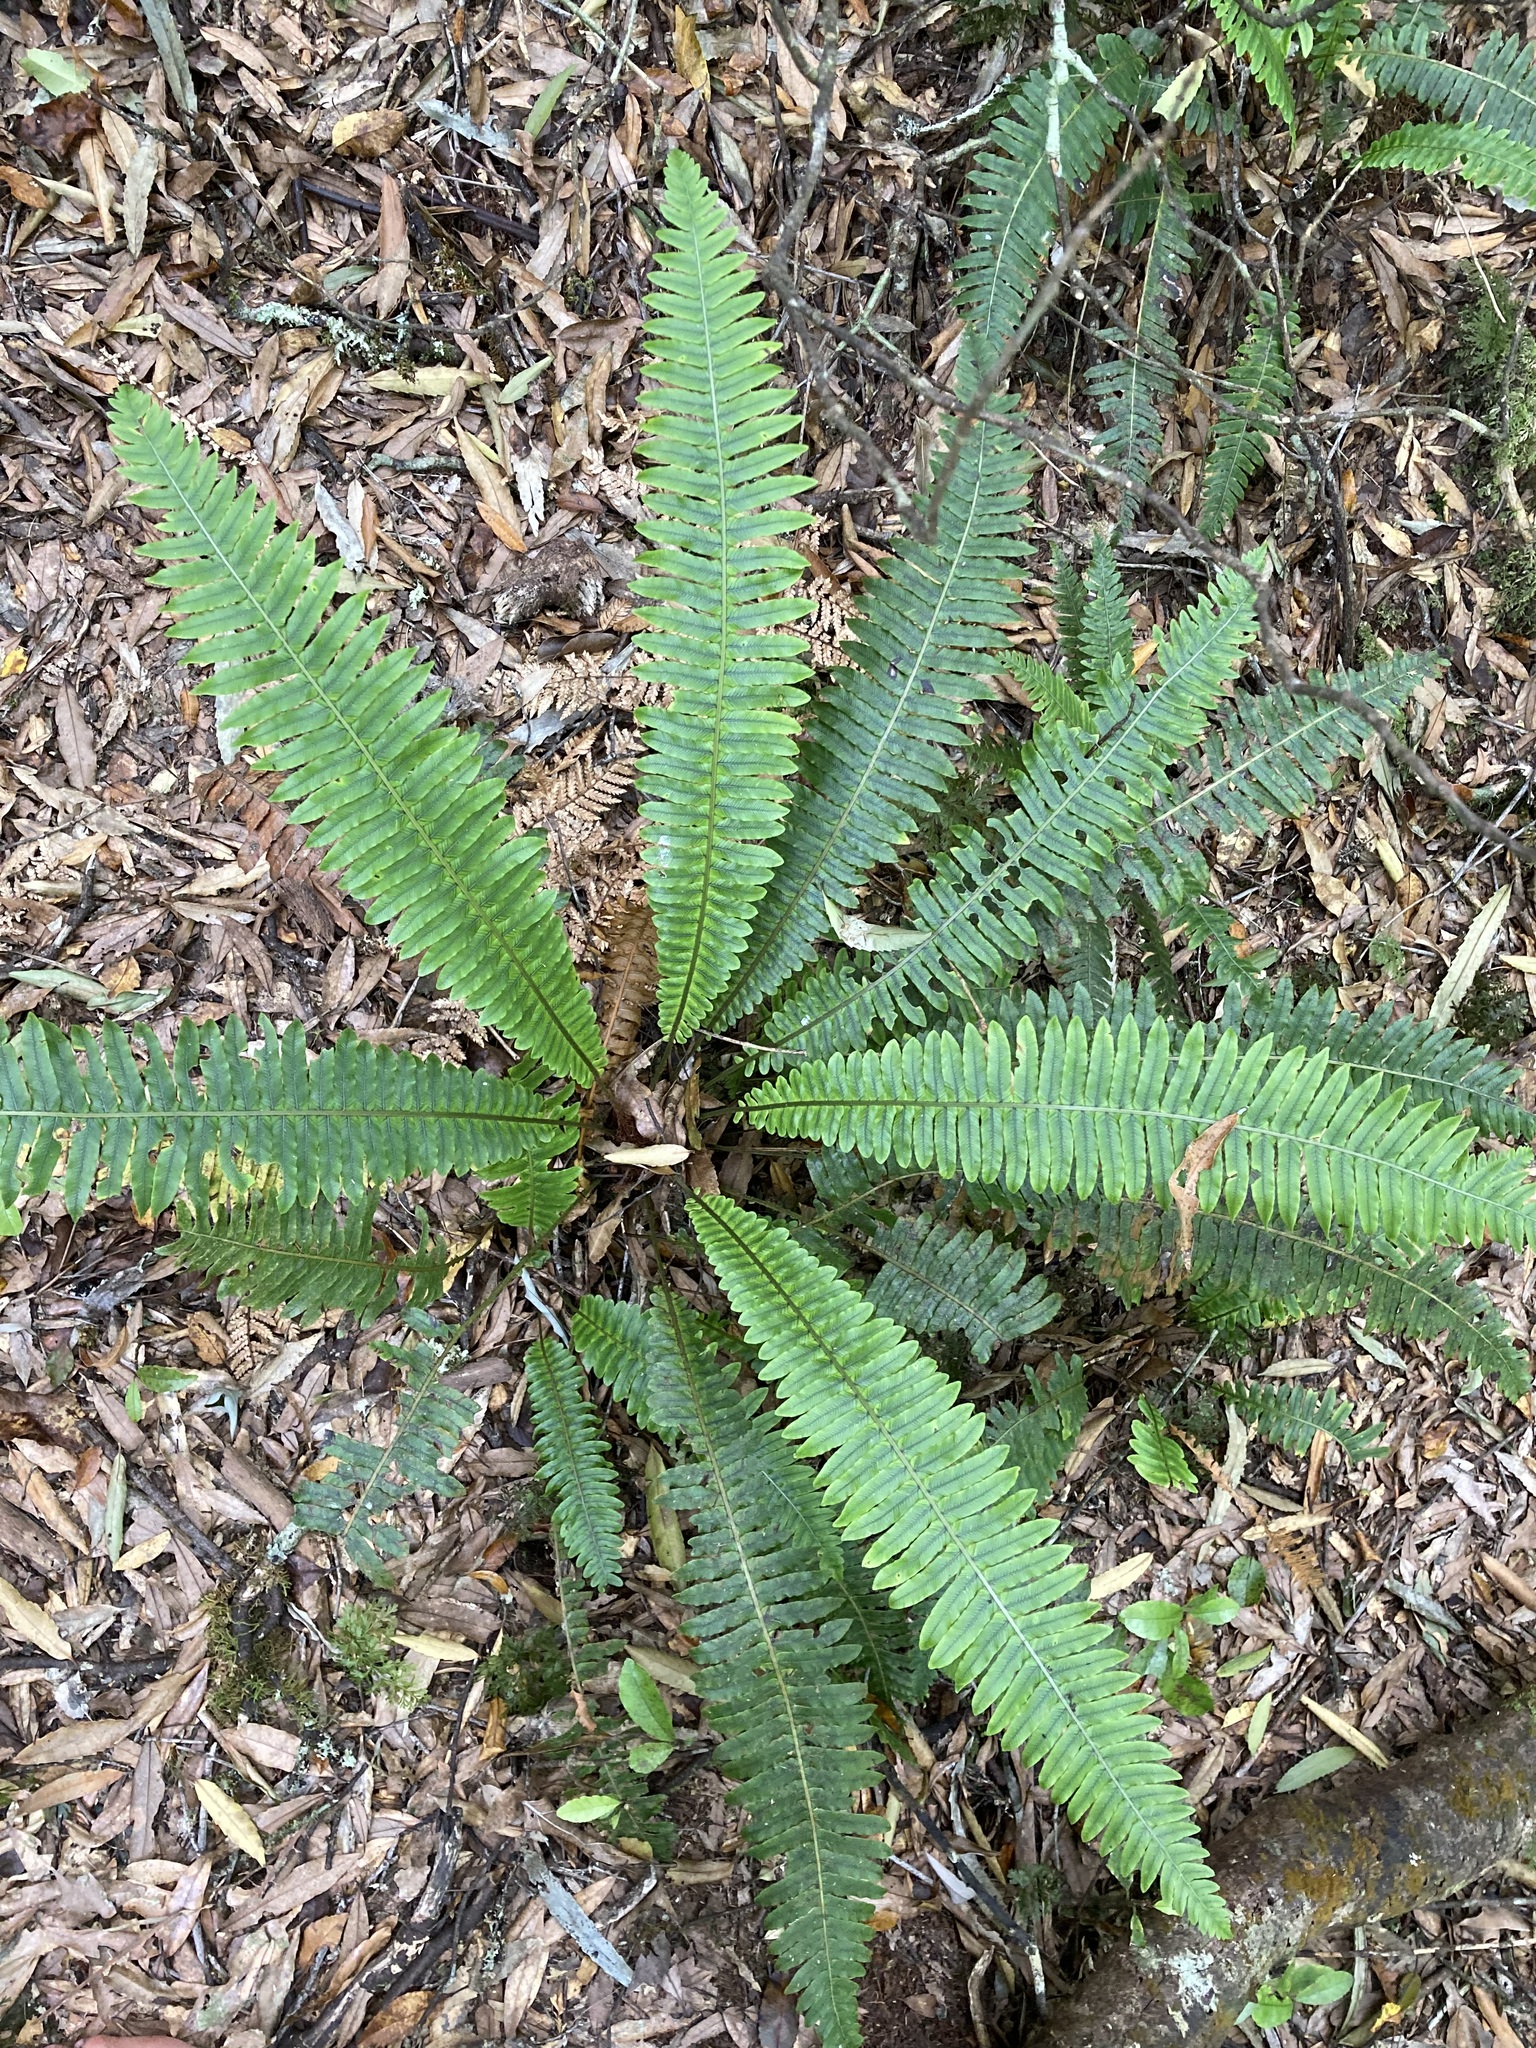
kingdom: Plantae
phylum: Tracheophyta
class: Polypodiopsida
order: Polypodiales
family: Blechnaceae
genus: Lomaria
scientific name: Lomaria discolor
